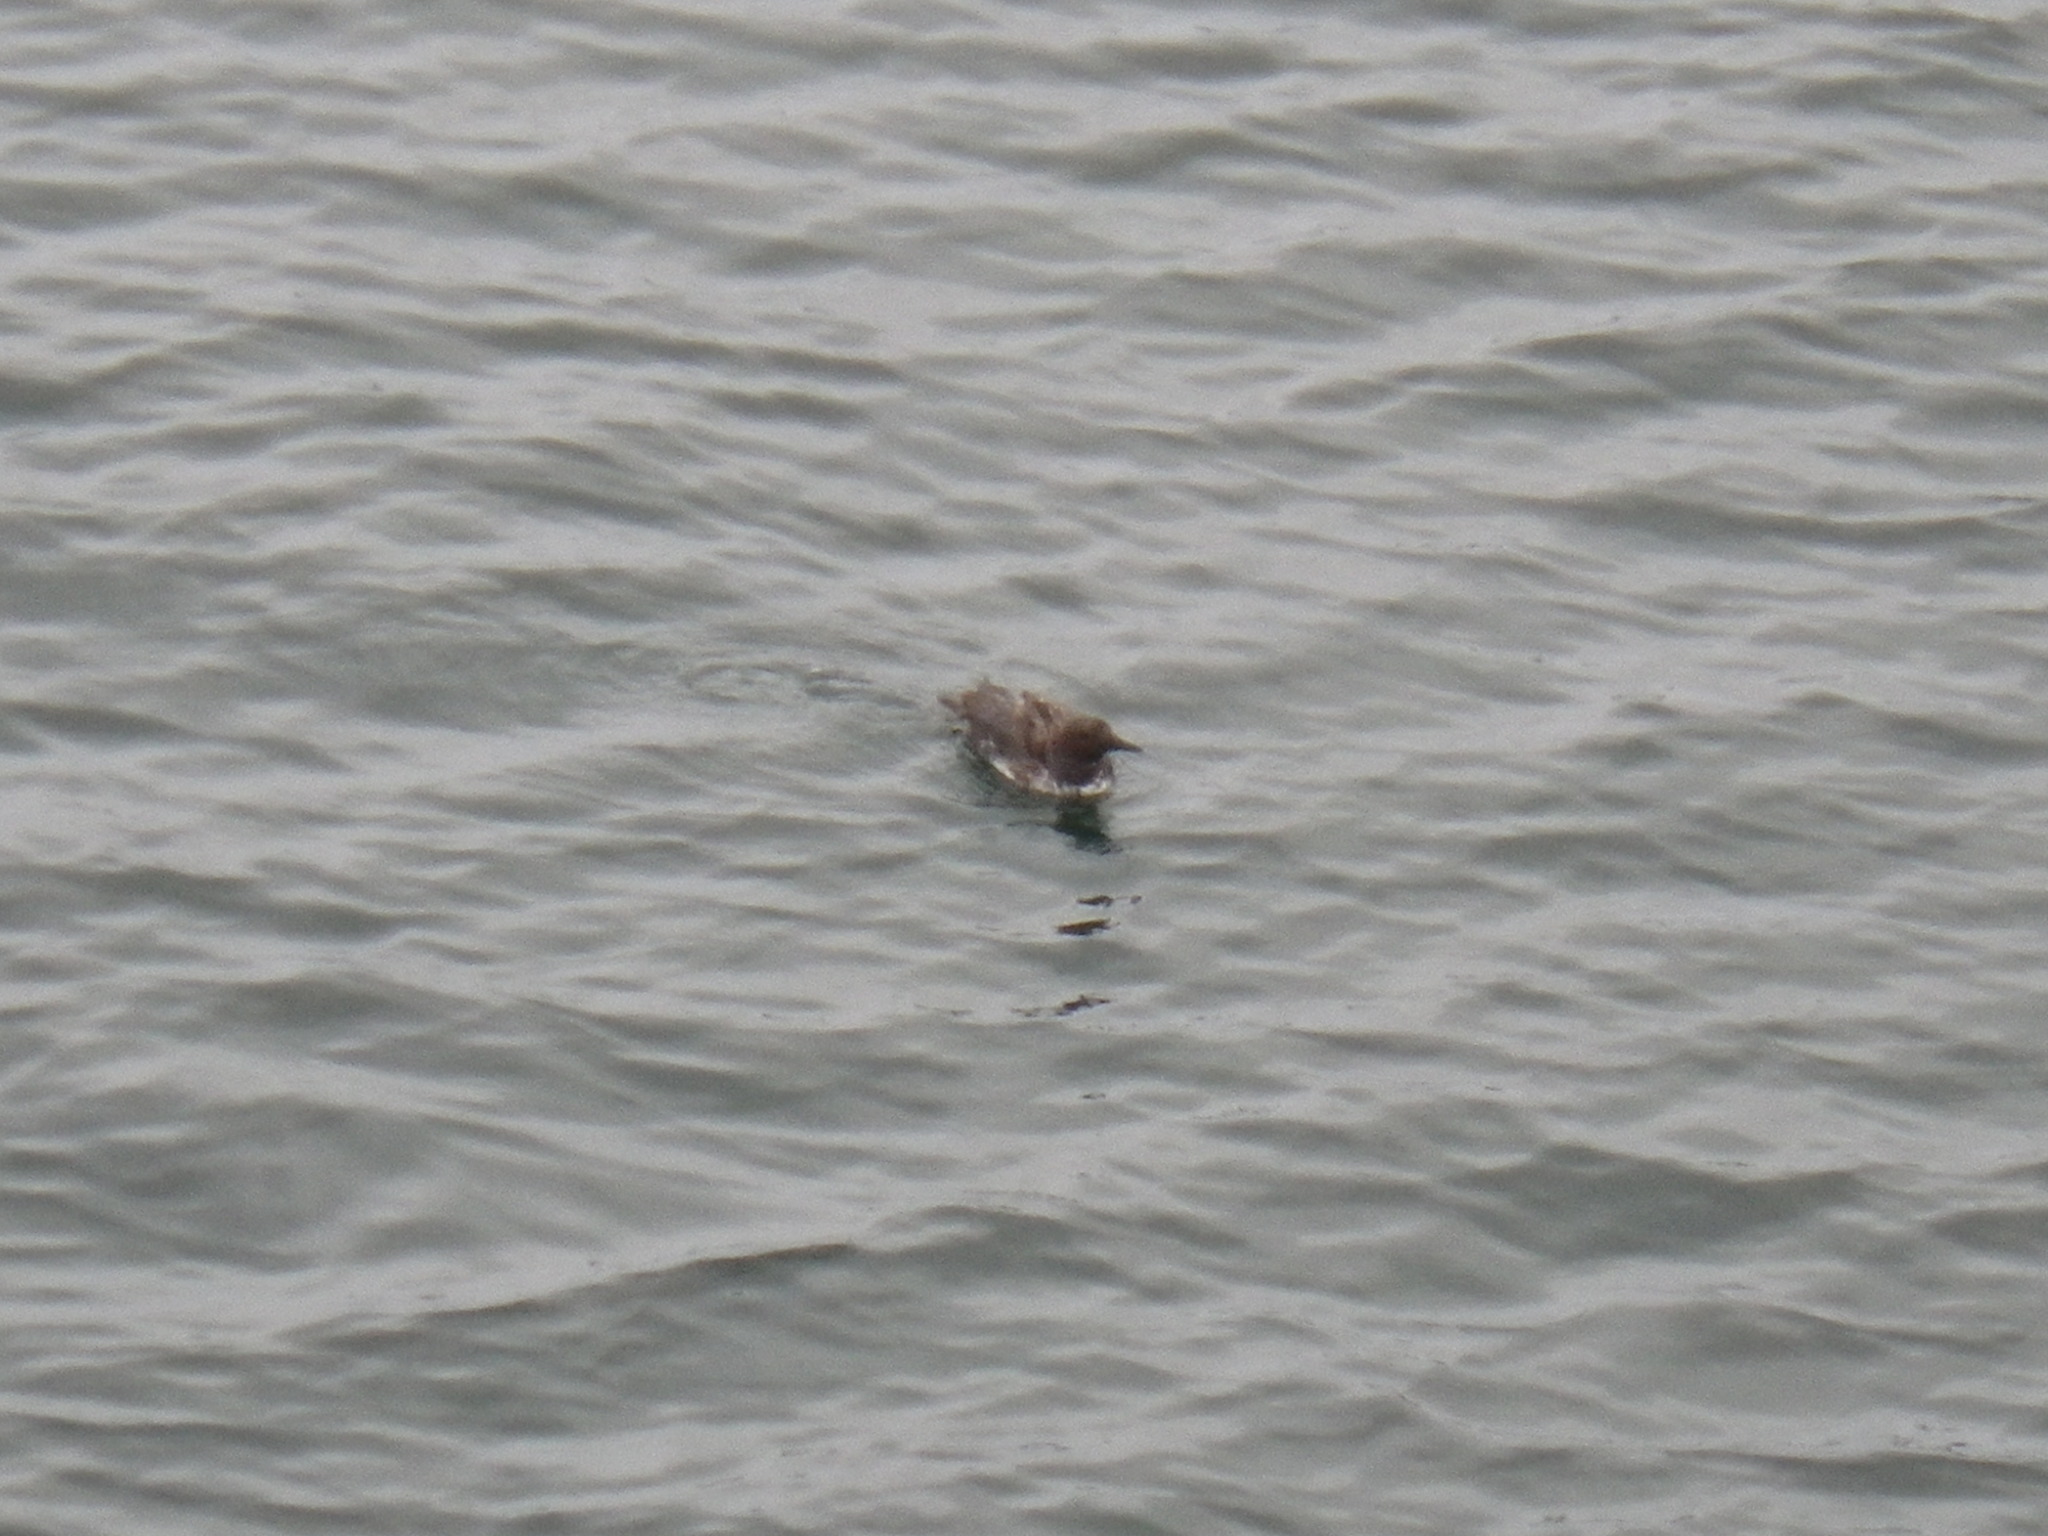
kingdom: Animalia
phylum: Chordata
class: Aves
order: Charadriiformes
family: Alcidae
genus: Uria
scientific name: Uria aalge
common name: Common murre
